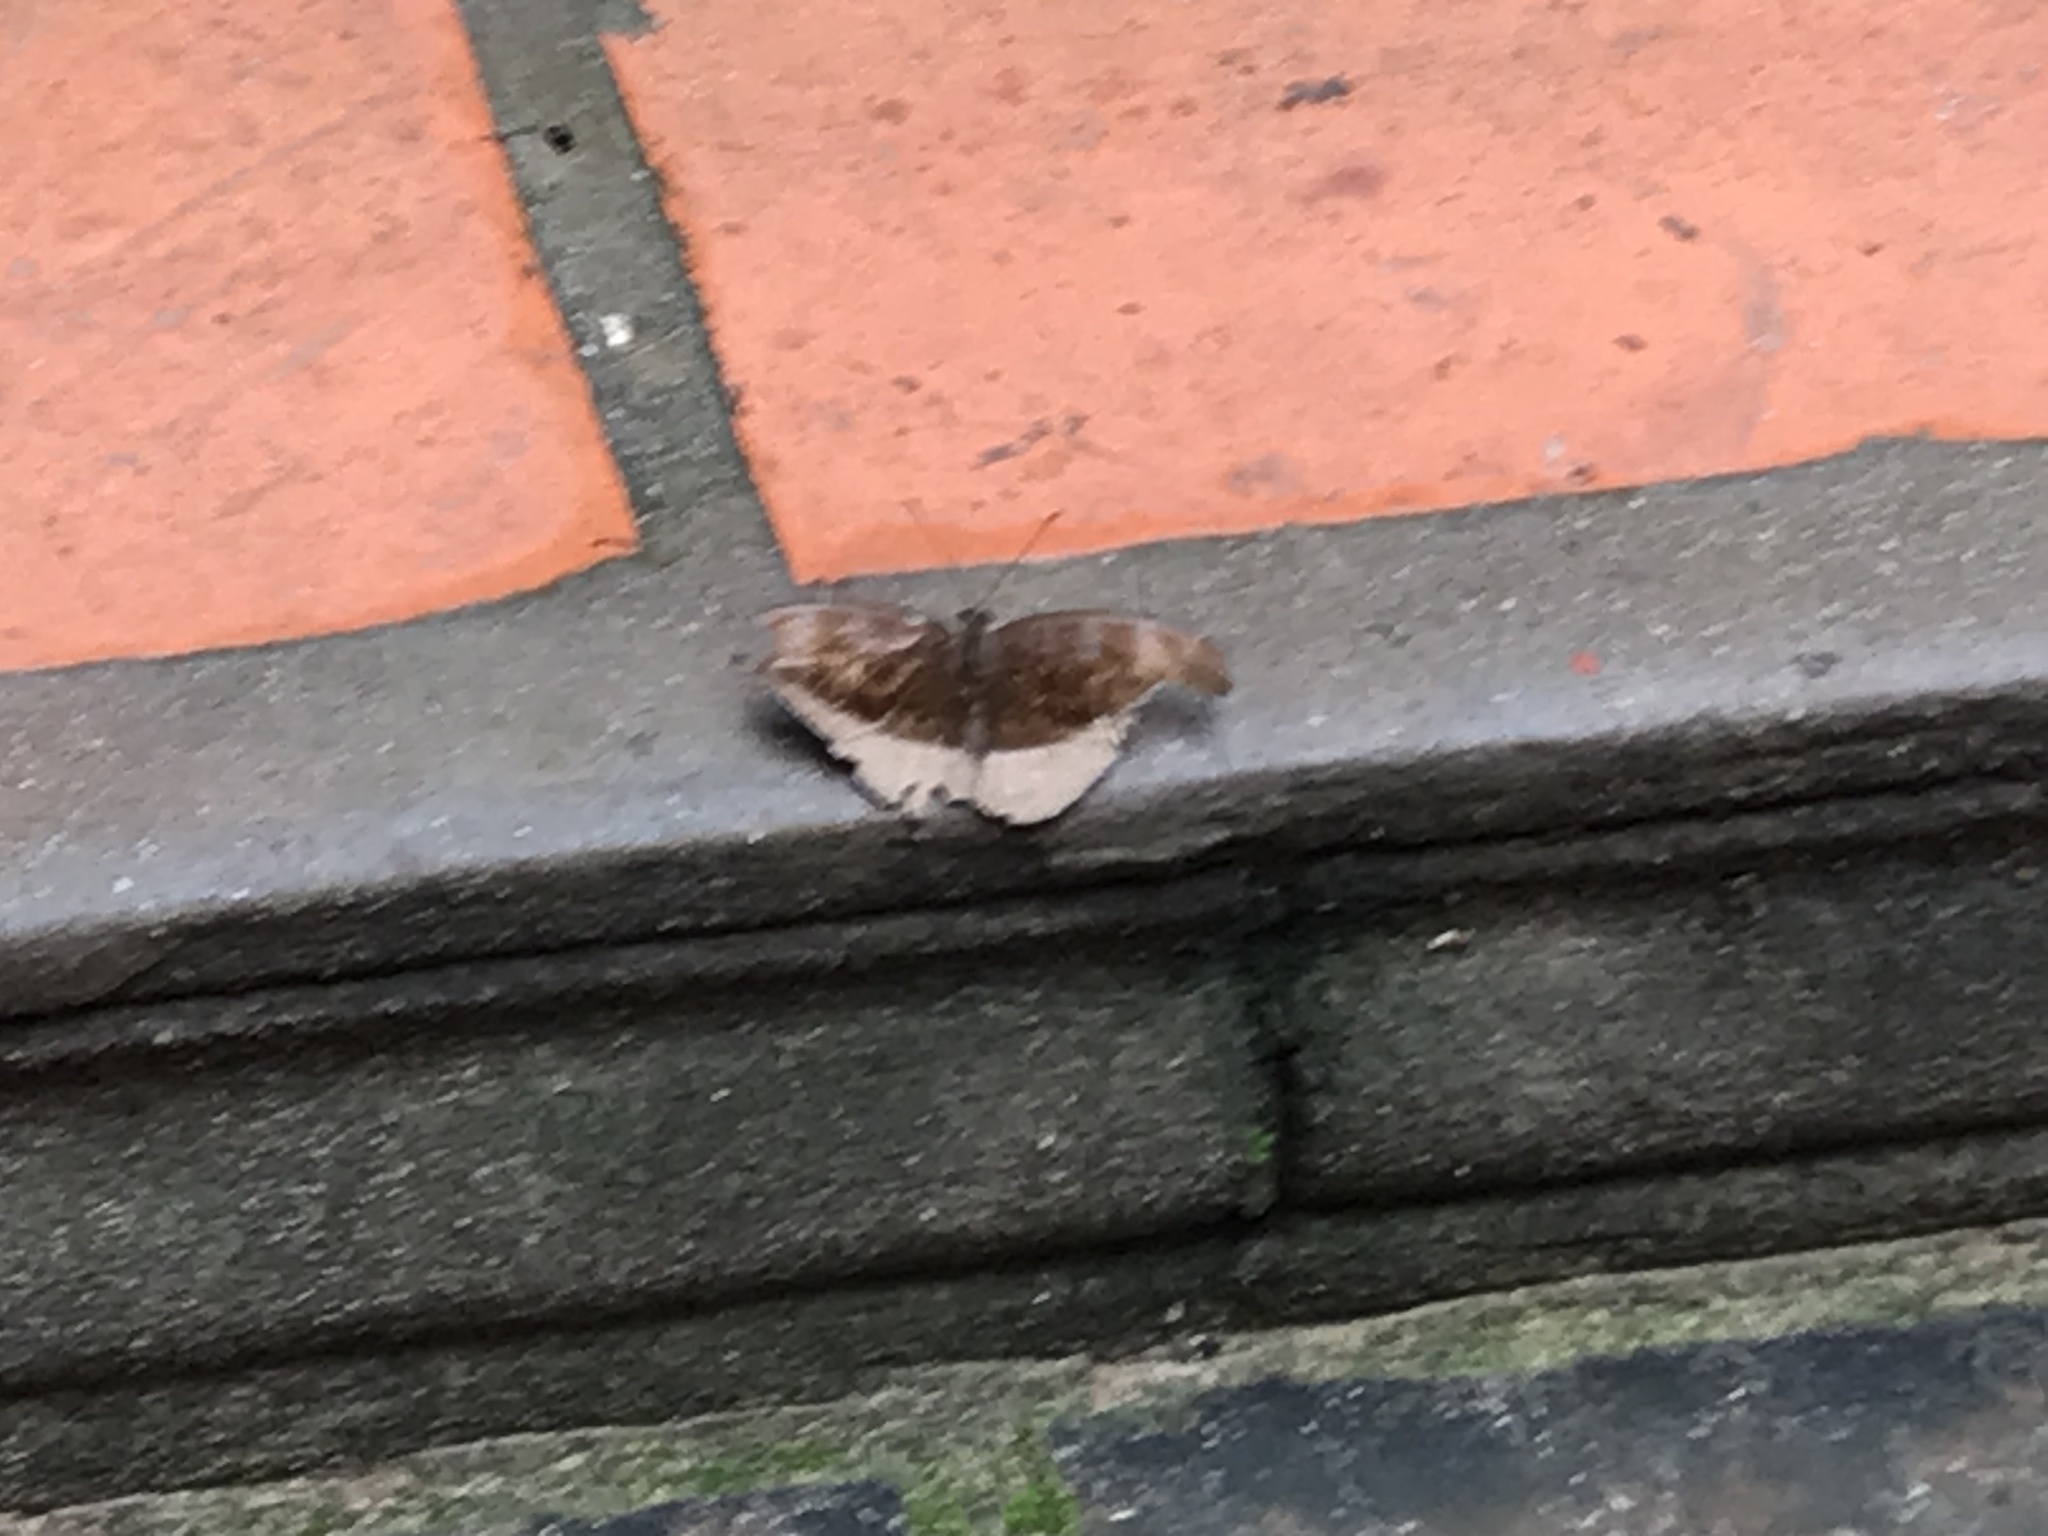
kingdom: Animalia
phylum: Arthropoda
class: Insecta
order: Lepidoptera
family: Nymphalidae
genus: Tanaecia
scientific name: Tanaecia julii
